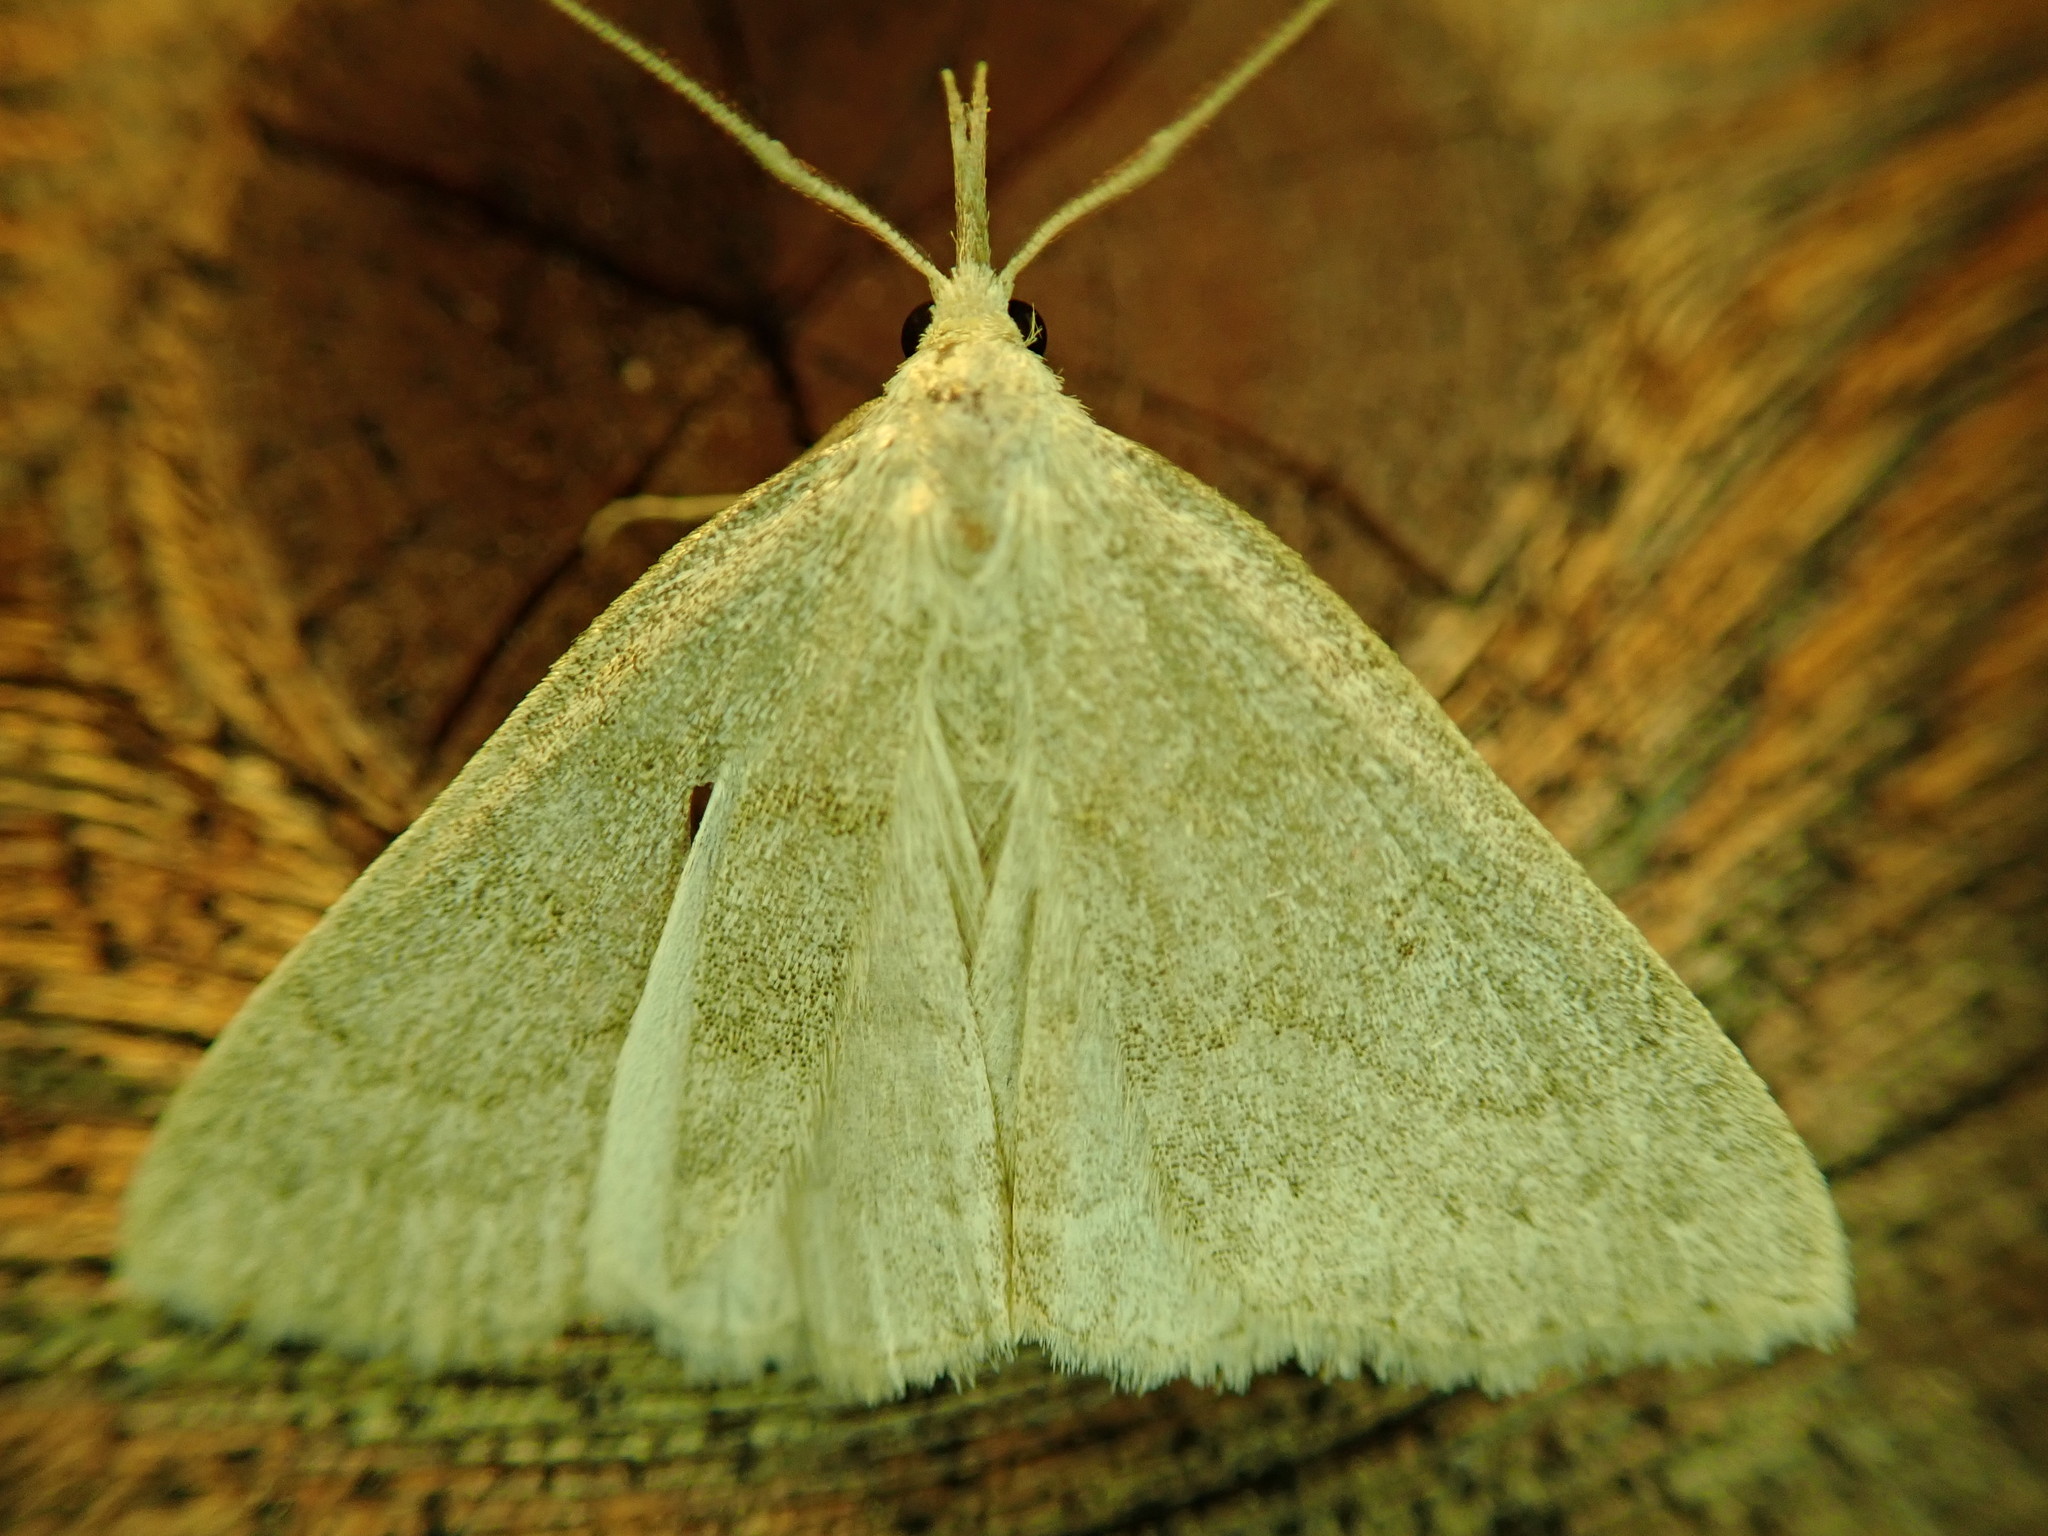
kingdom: Animalia
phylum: Arthropoda
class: Insecta
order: Lepidoptera
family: Erebidae
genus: Macrochilo
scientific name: Macrochilo morbidalis
